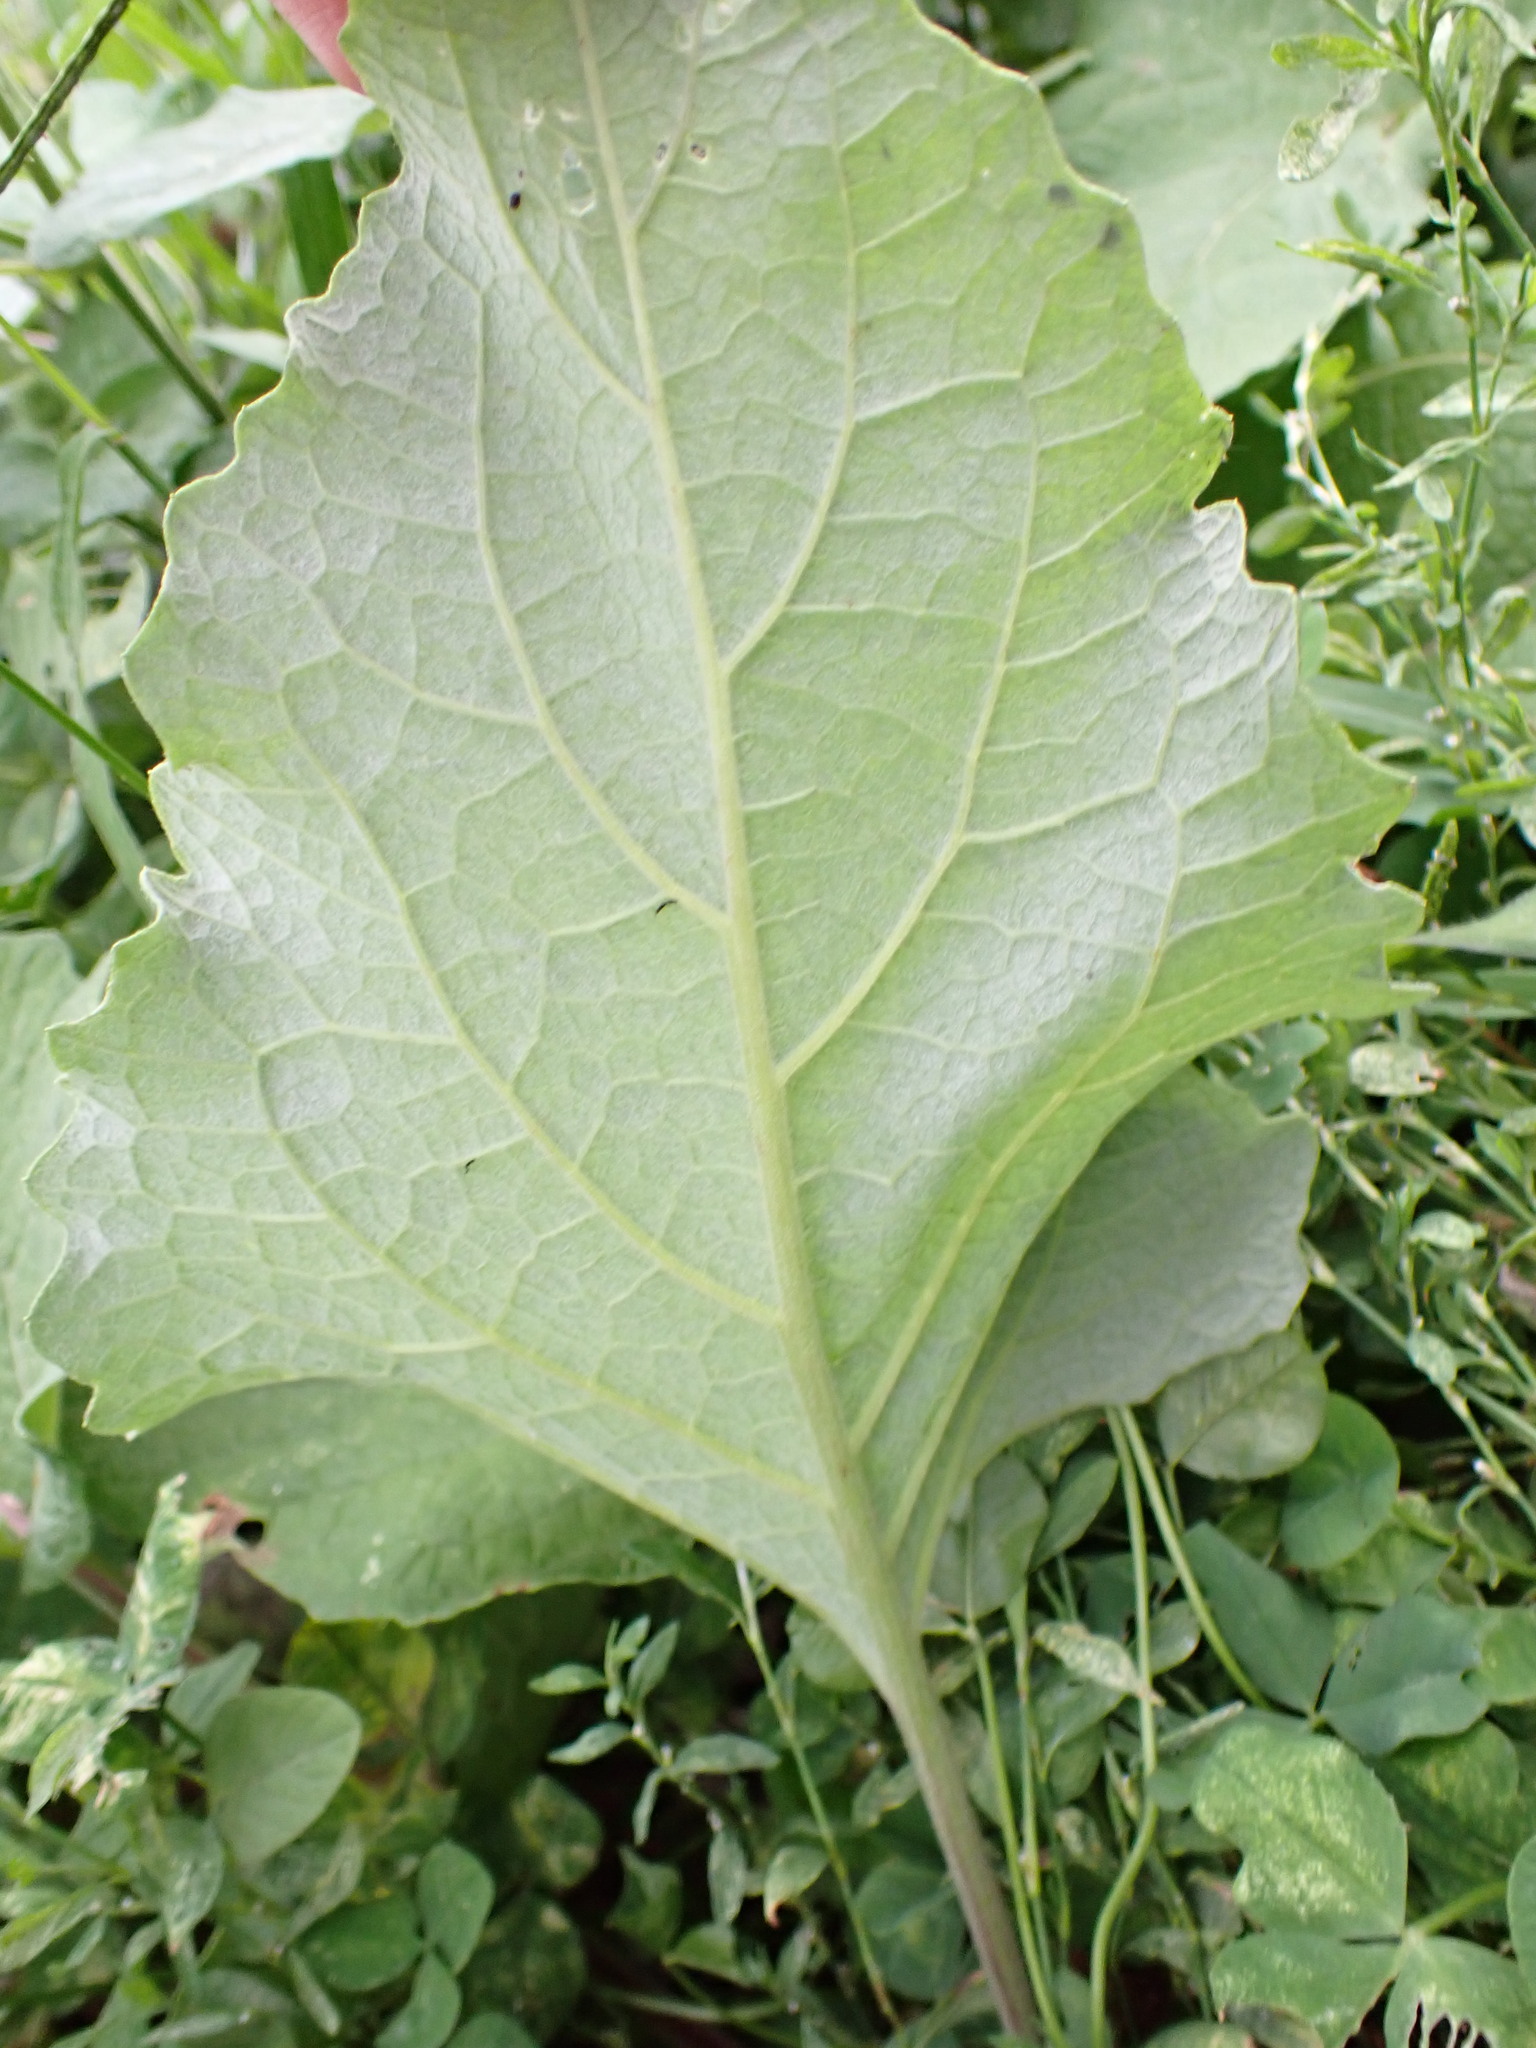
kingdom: Plantae
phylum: Tracheophyta
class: Magnoliopsida
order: Asterales
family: Asteraceae
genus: Arctium
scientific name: Arctium minus
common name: Lesser burdock
